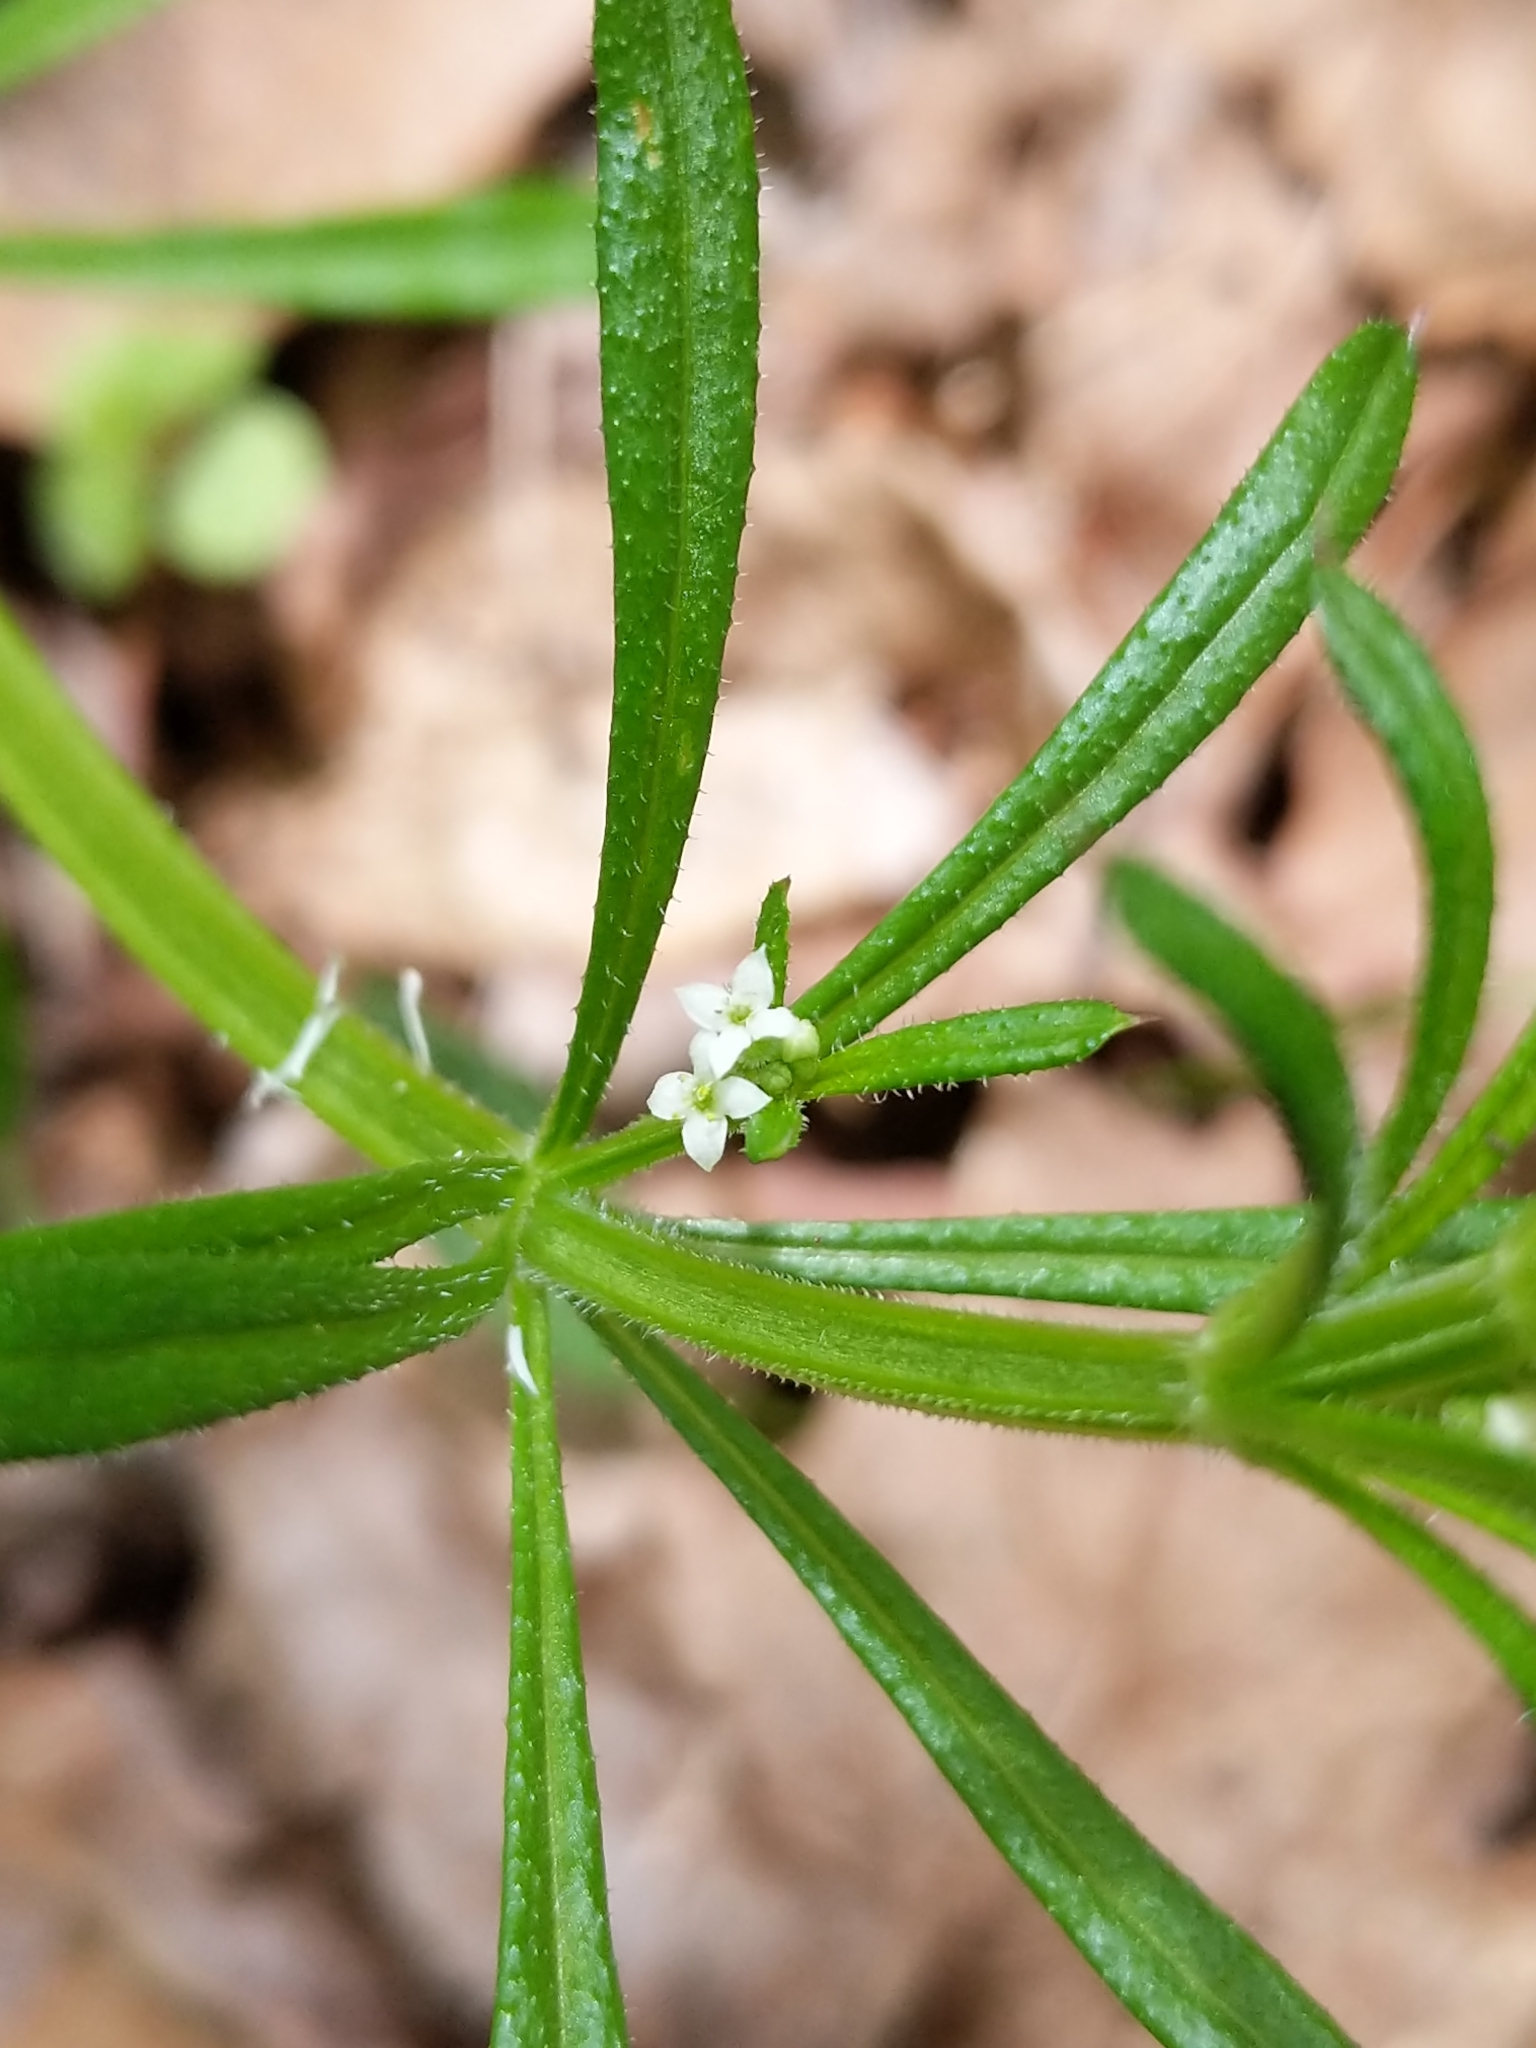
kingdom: Plantae
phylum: Tracheophyta
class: Magnoliopsida
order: Gentianales
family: Rubiaceae
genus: Galium
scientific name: Galium aparine
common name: Cleavers
